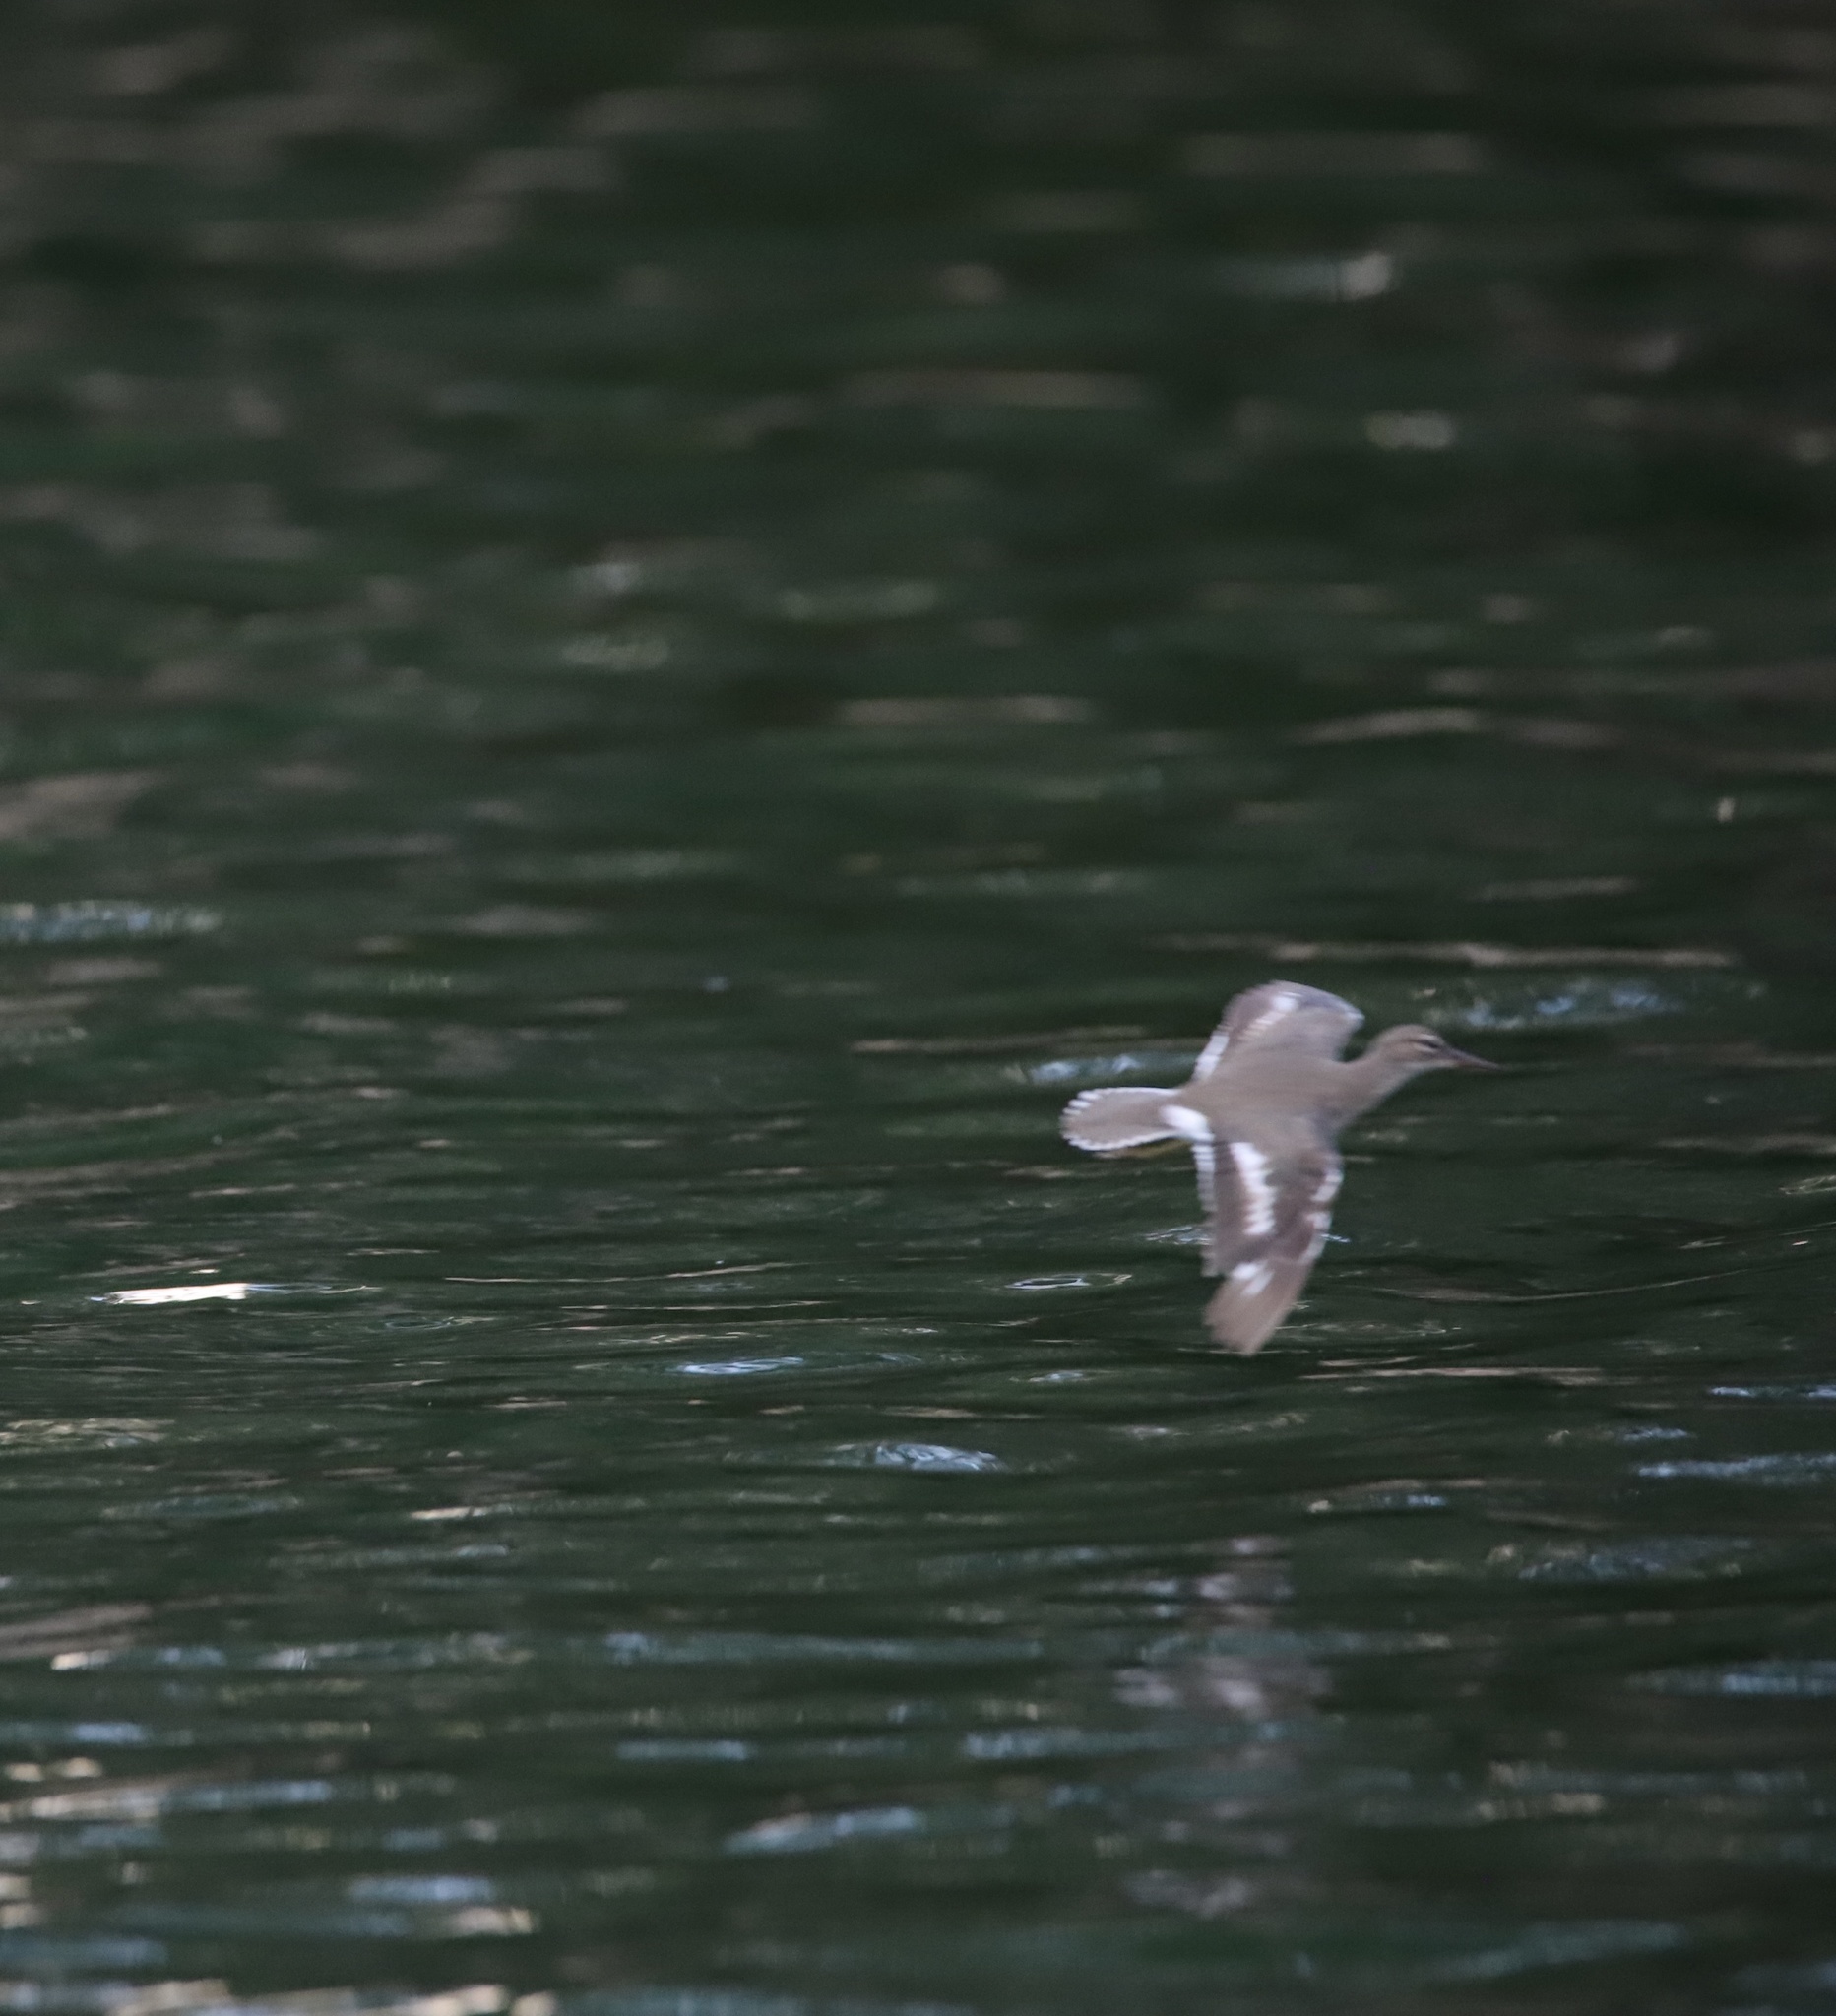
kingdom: Animalia
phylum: Chordata
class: Aves
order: Charadriiformes
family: Scolopacidae
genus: Actitis
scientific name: Actitis macularius
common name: Spotted sandpiper
